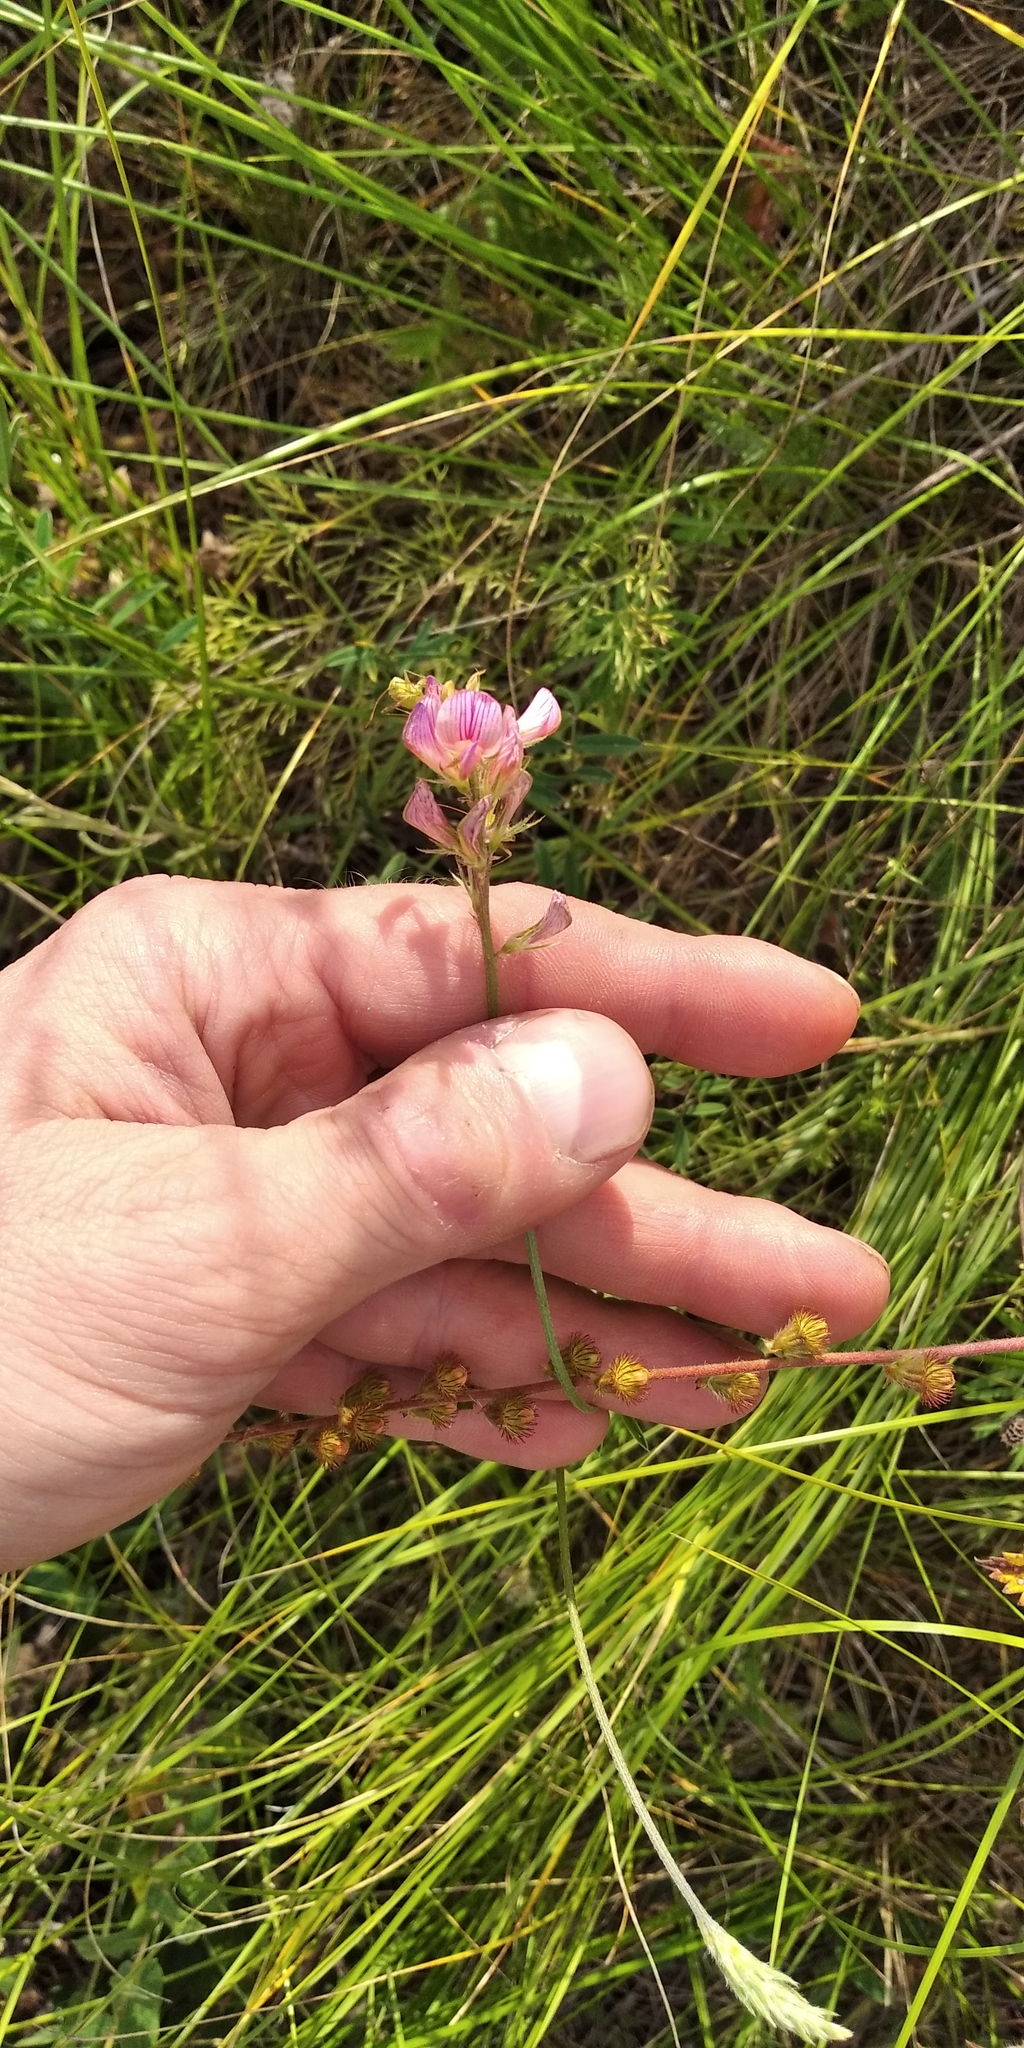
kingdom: Plantae
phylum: Tracheophyta
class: Magnoliopsida
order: Fabales
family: Fabaceae
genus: Onobrychis
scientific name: Onobrychis viciifolia
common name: Sainfoin
